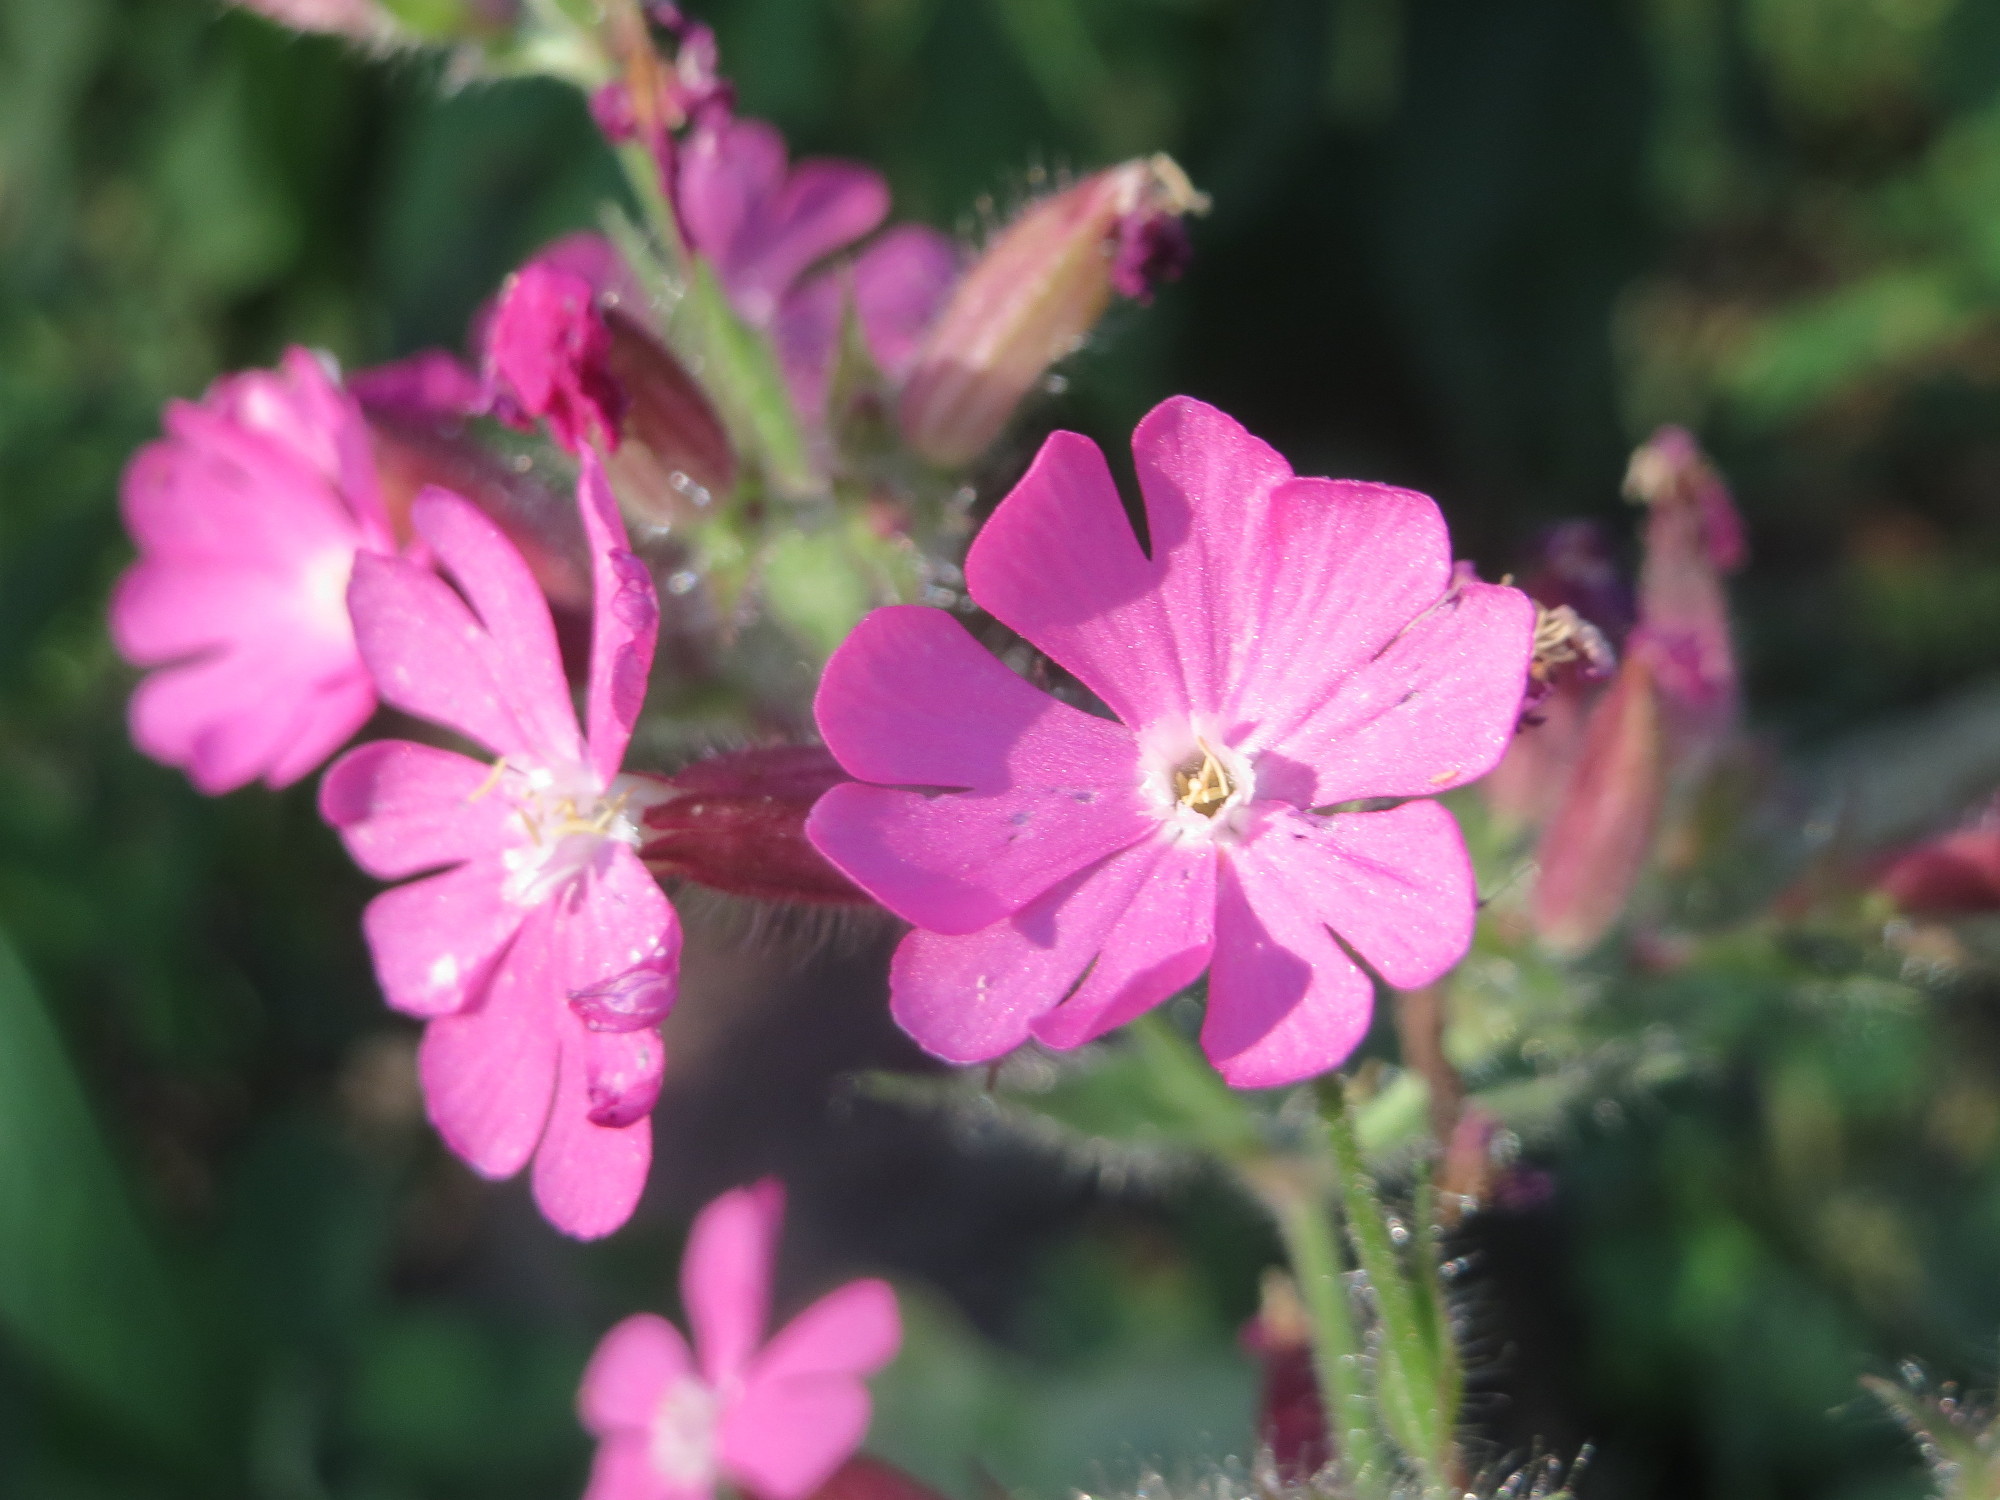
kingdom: Plantae
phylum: Tracheophyta
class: Magnoliopsida
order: Caryophyllales
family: Caryophyllaceae
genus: Silene
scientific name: Silene dioica
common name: Red campion
